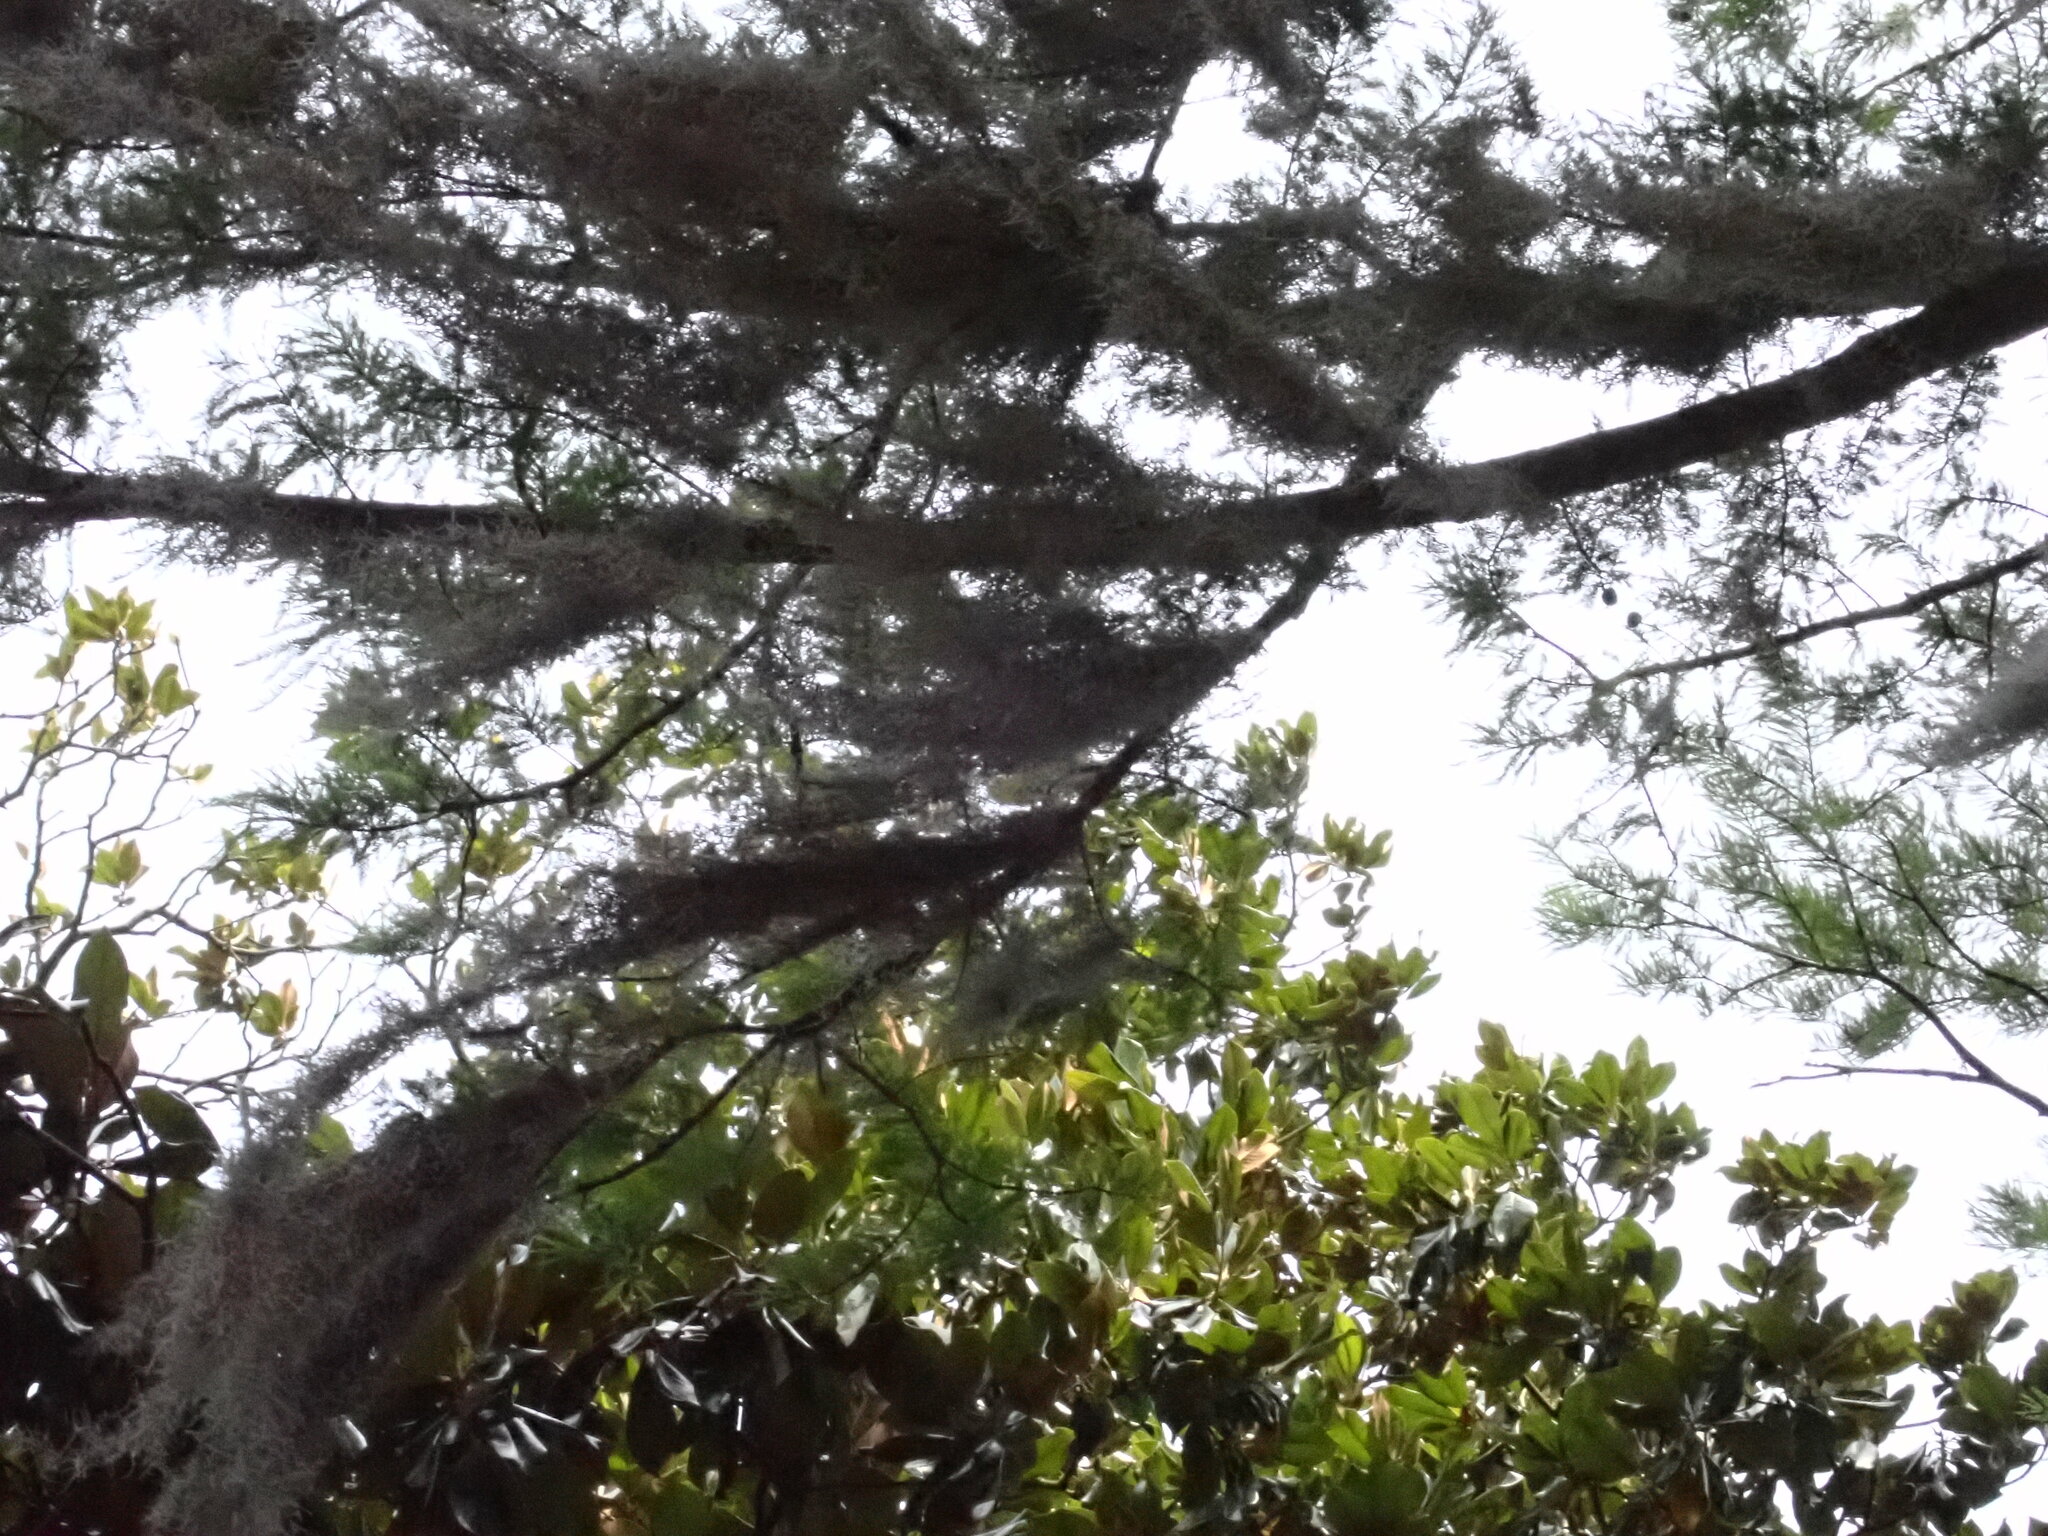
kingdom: Plantae
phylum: Tracheophyta
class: Liliopsida
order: Poales
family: Bromeliaceae
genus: Tillandsia
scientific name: Tillandsia usneoides
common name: Spanish moss
